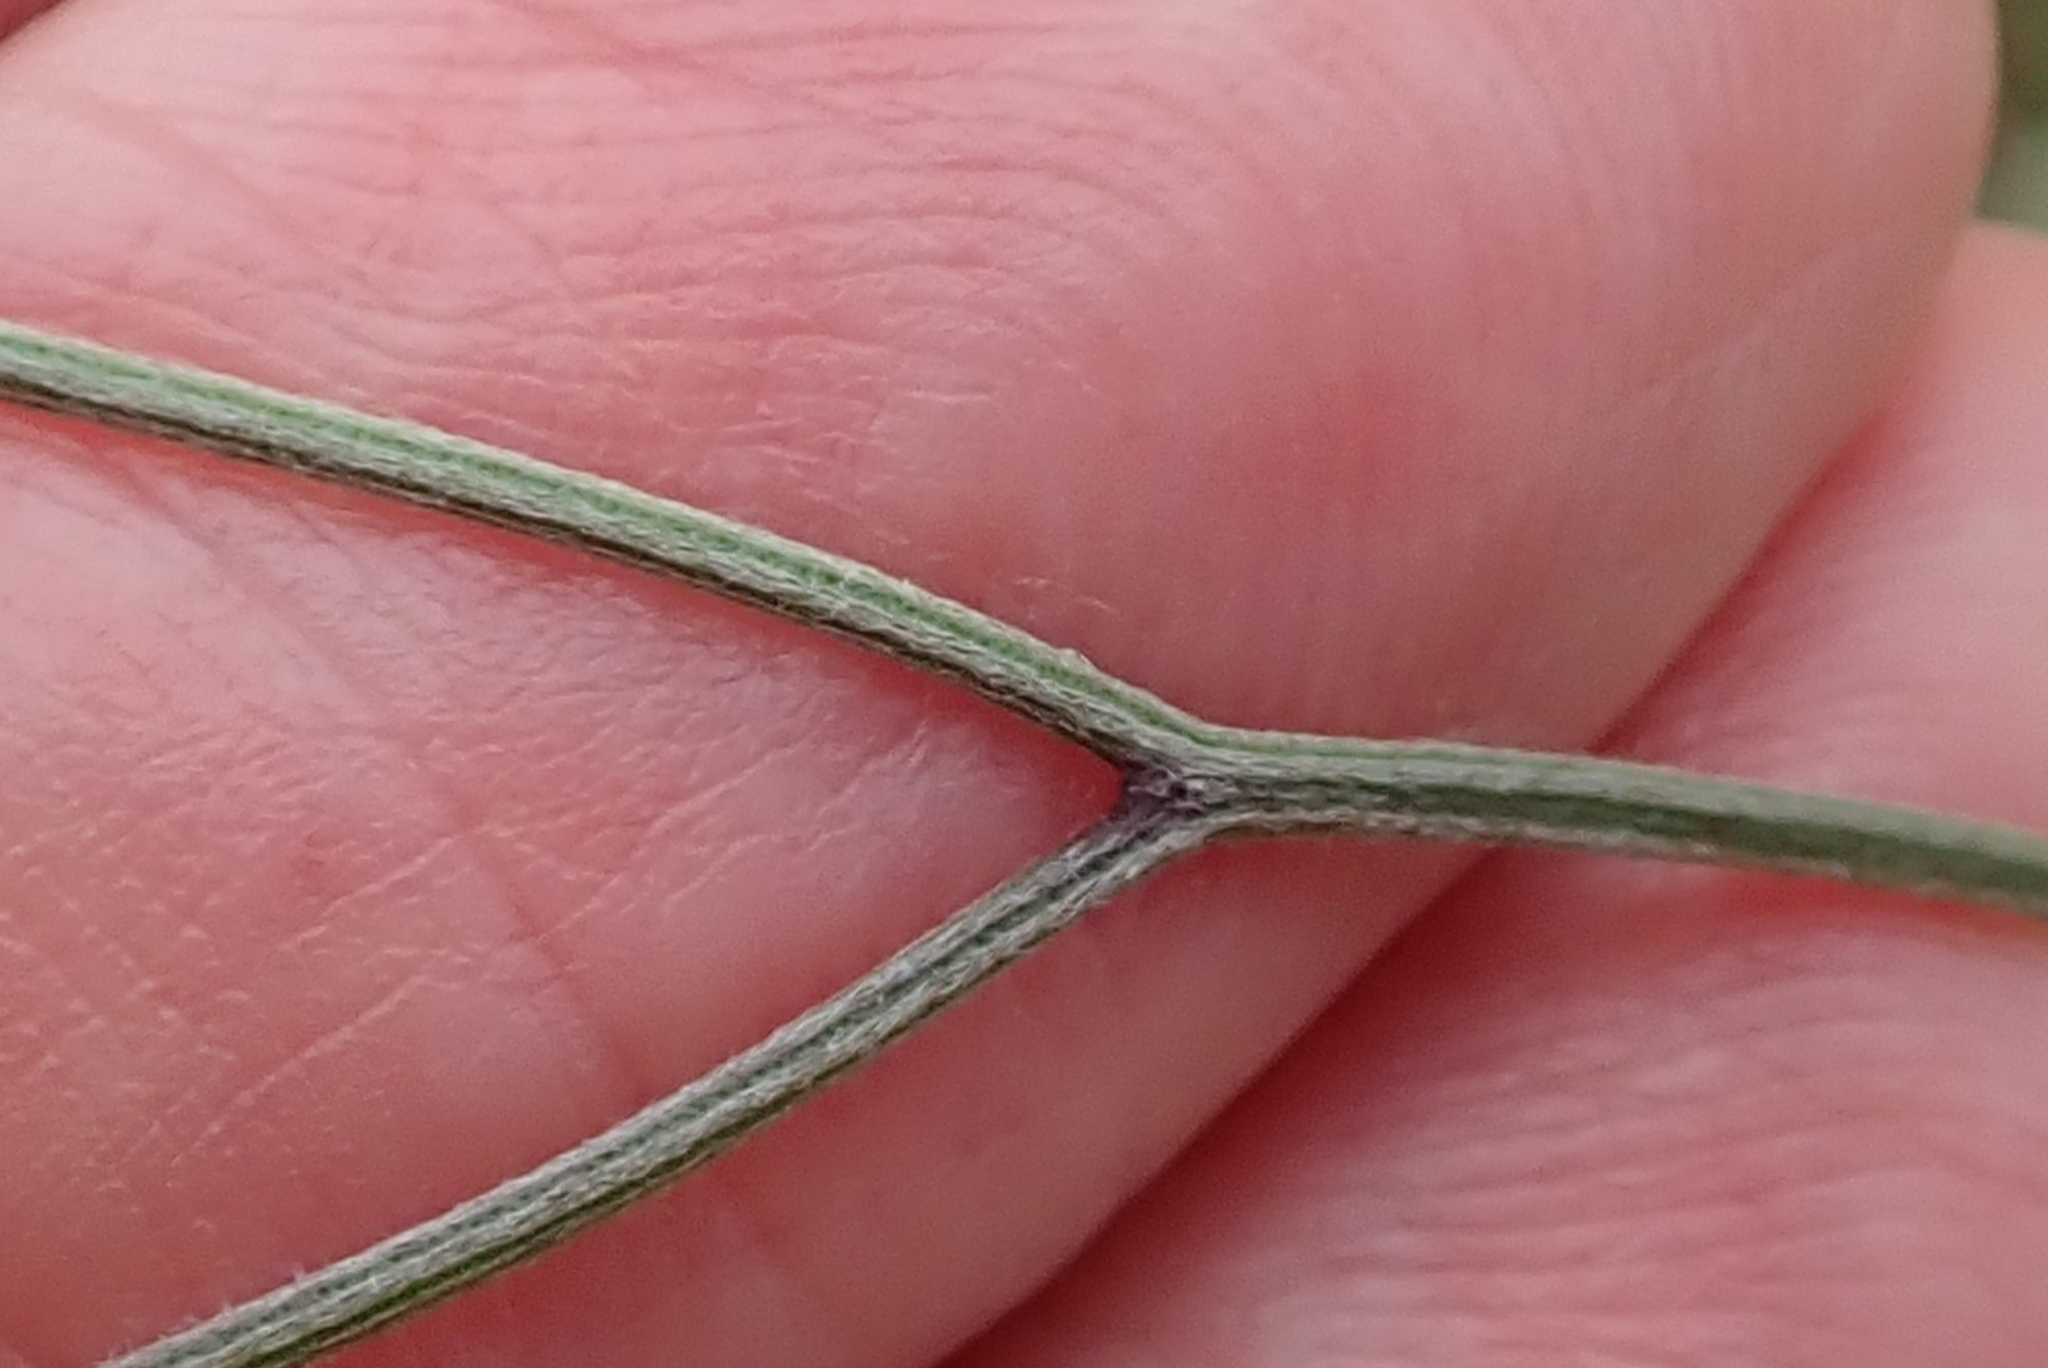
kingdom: Plantae
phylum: Tracheophyta
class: Magnoliopsida
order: Asterales
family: Asteraceae
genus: Hilliardiella
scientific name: Hilliardiella capensis
